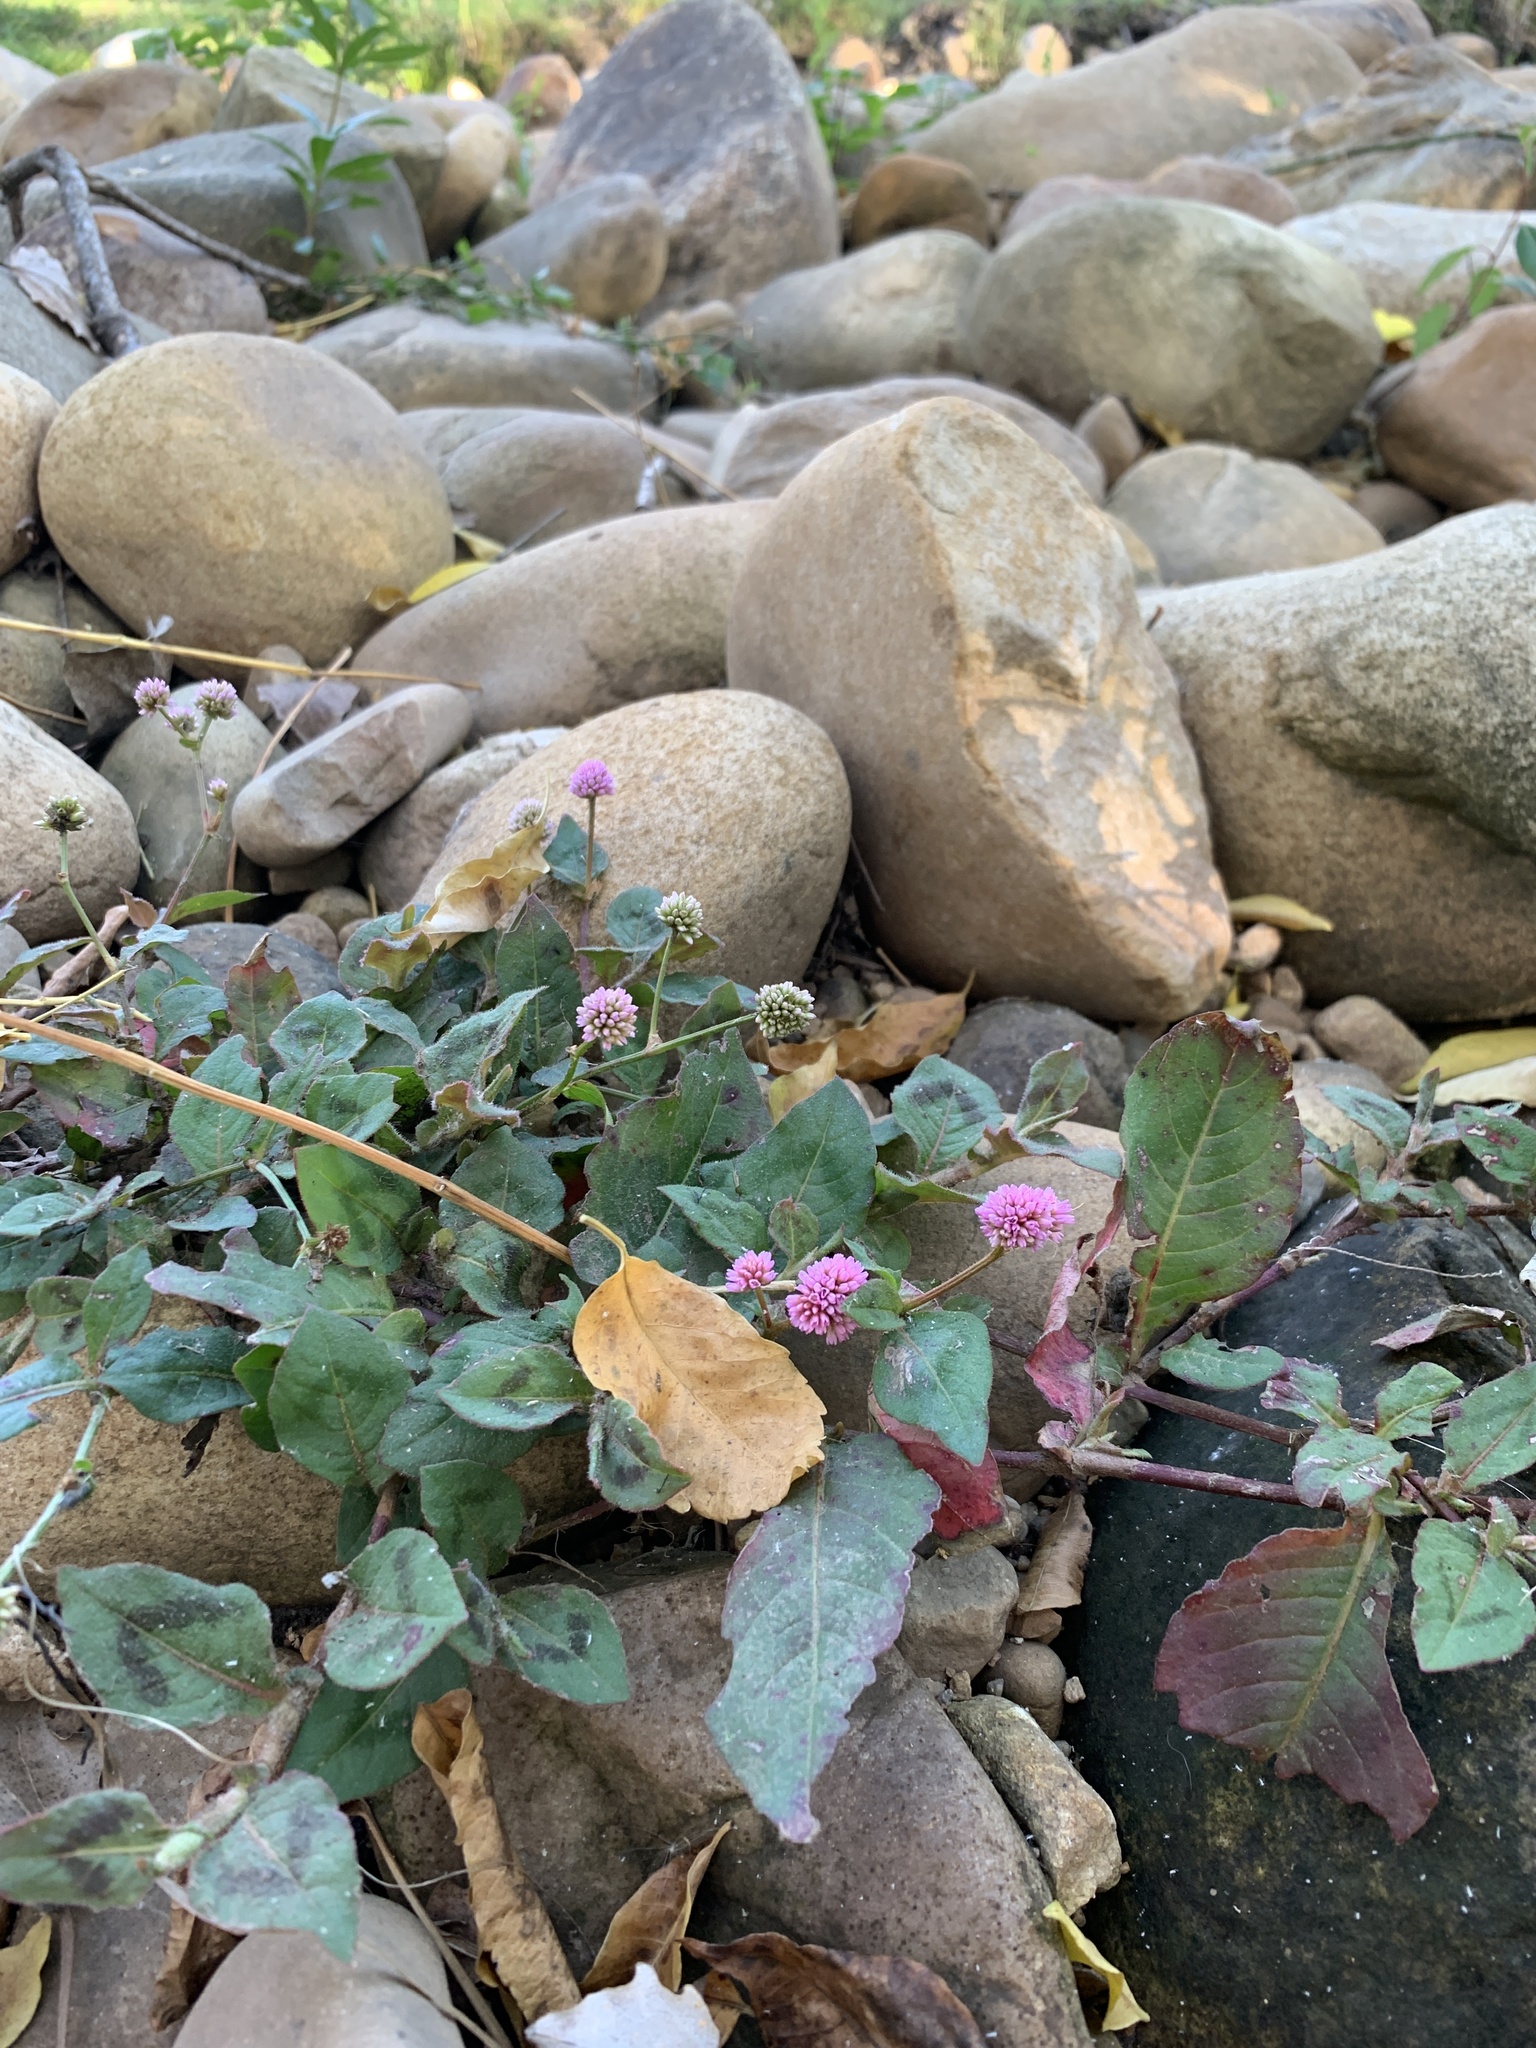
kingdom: Plantae
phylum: Tracheophyta
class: Magnoliopsida
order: Caryophyllales
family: Polygonaceae
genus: Persicaria
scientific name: Persicaria capitata
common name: Pinkhead smartweed
